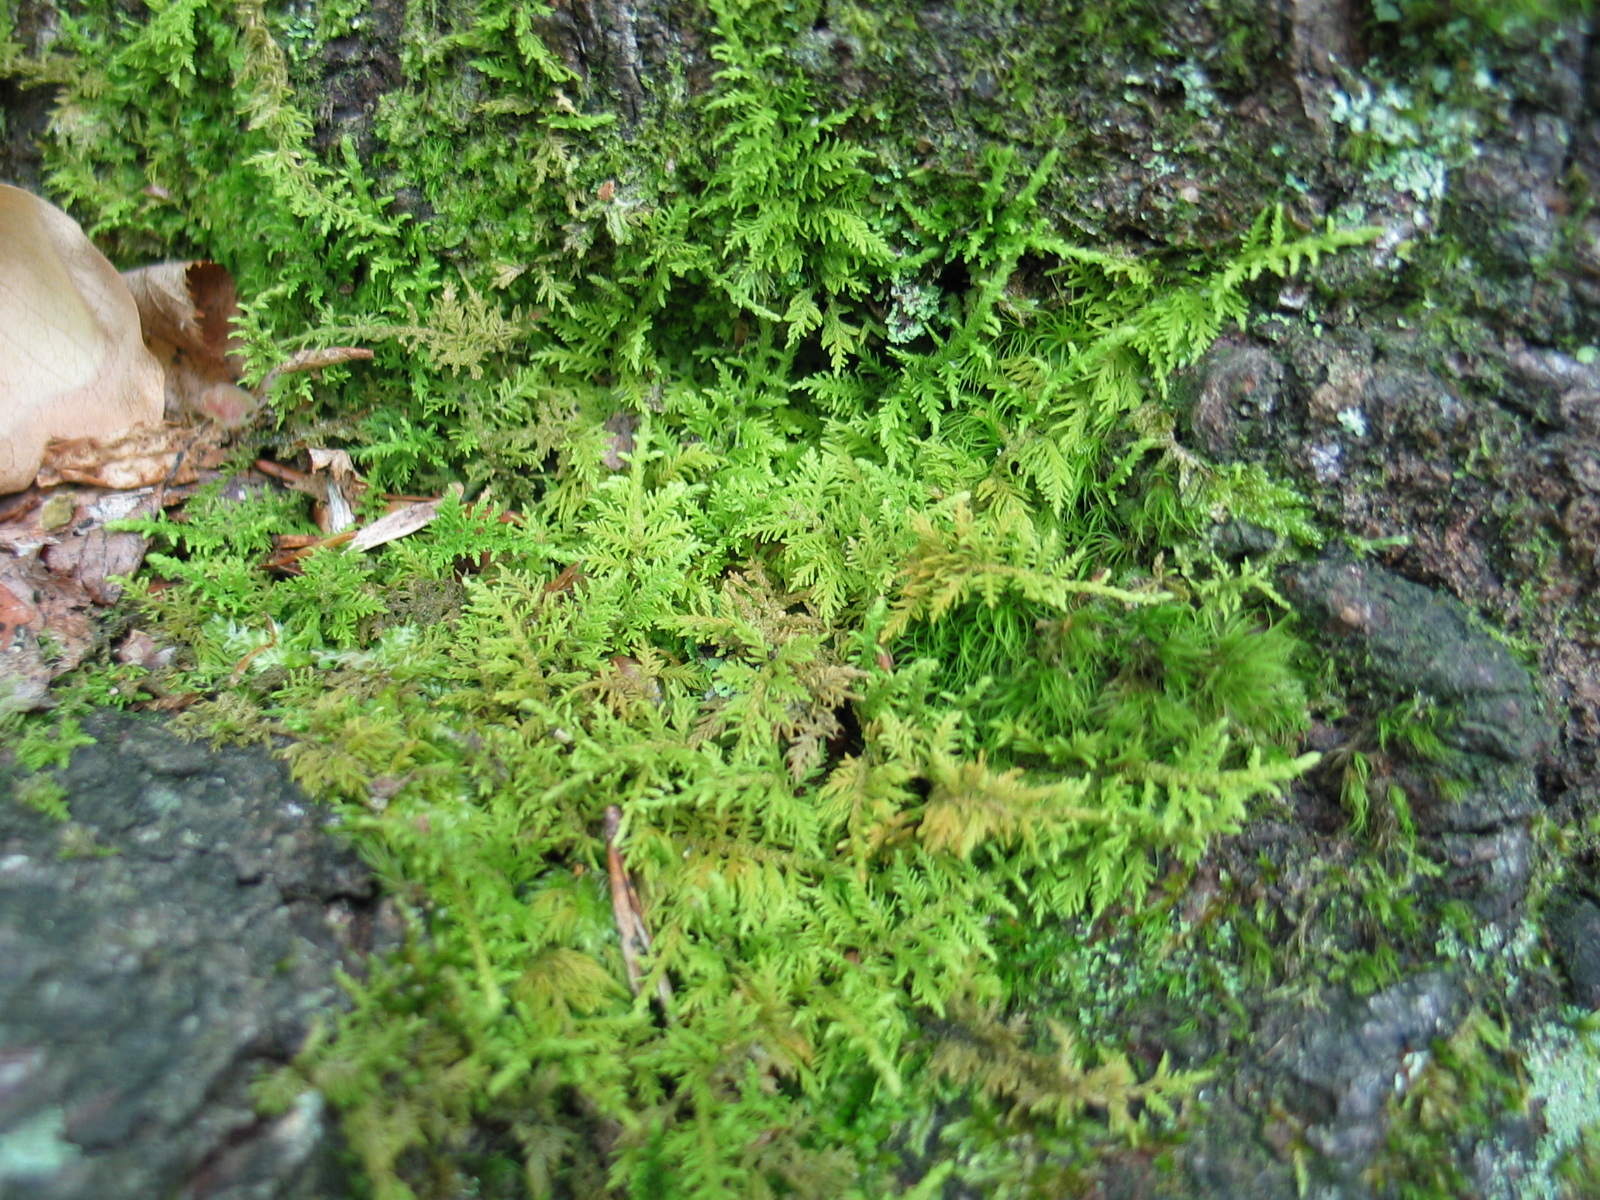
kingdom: Plantae
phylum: Bryophyta
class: Bryopsida
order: Hypnales
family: Thuidiaceae
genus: Thuidium
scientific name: Thuidium delicatulum
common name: Delicate fern moss
